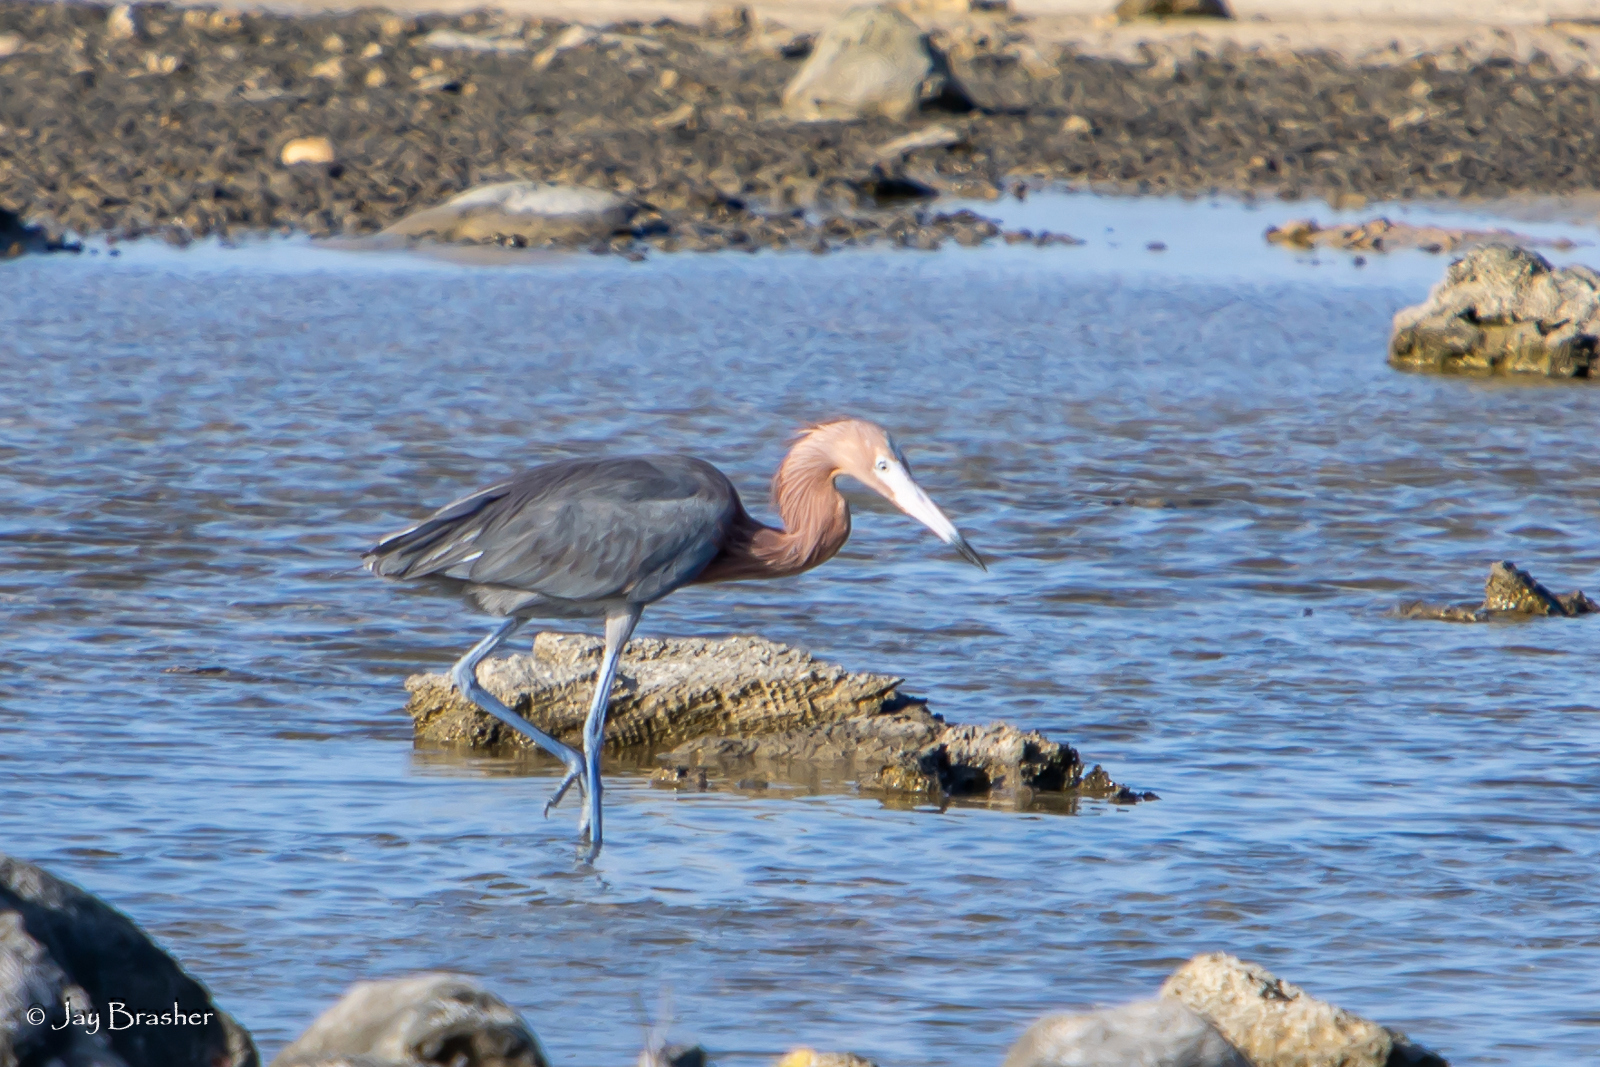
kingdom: Animalia
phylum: Chordata
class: Aves
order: Pelecaniformes
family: Ardeidae
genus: Egretta
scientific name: Egretta rufescens
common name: Reddish egret
